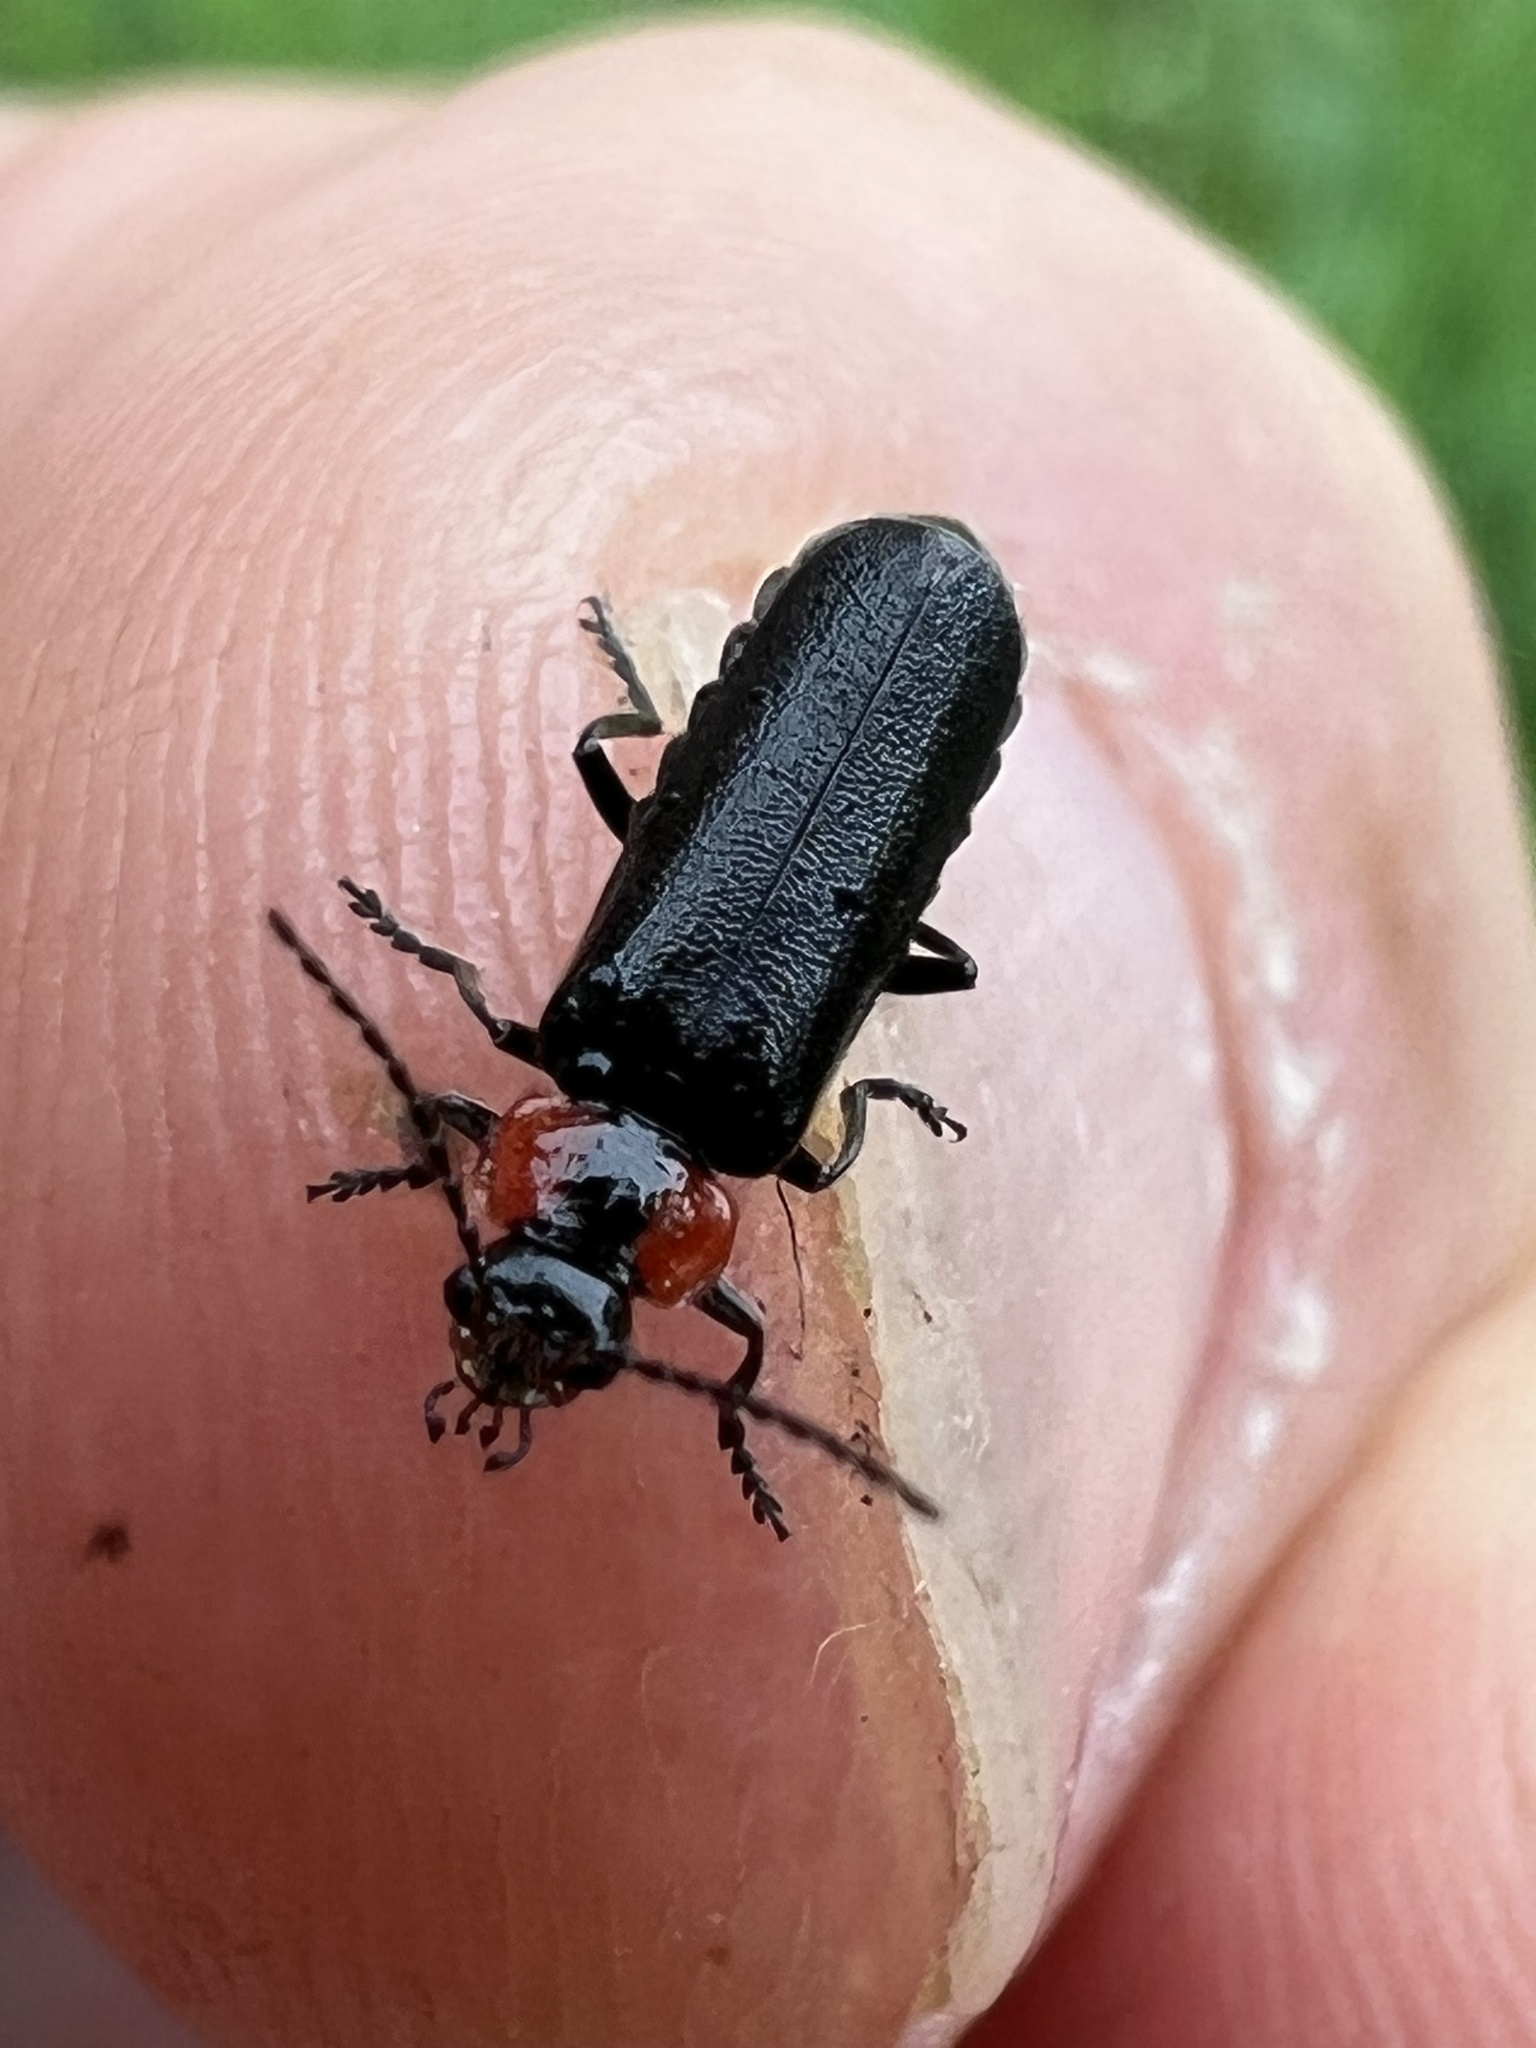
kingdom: Animalia
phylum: Arthropoda
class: Insecta
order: Coleoptera
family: Cantharidae
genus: Cantharis
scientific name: Cantharis tuberculata
